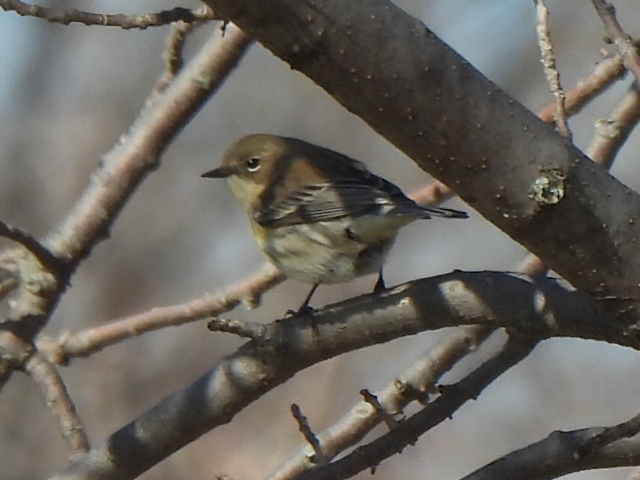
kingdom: Animalia
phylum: Chordata
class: Aves
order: Passeriformes
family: Parulidae
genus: Setophaga
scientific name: Setophaga coronata
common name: Myrtle warbler
